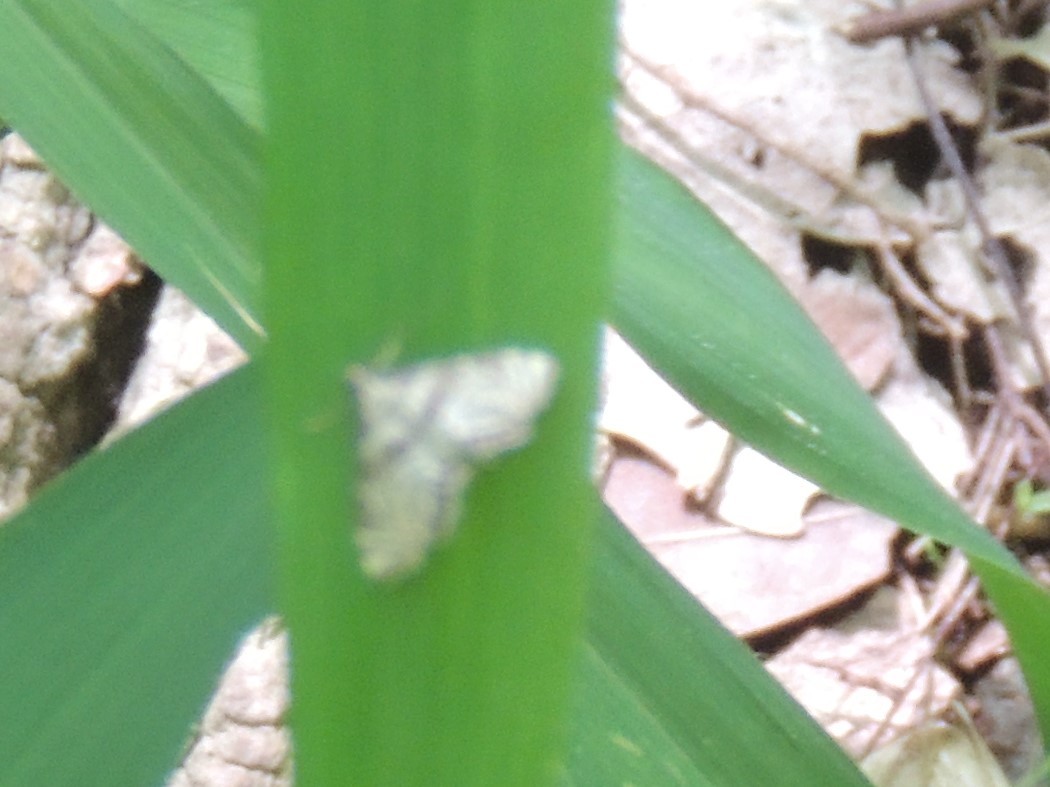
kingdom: Animalia
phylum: Arthropoda
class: Insecta
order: Lepidoptera
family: Crambidae
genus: Petrophila
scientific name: Petrophila
